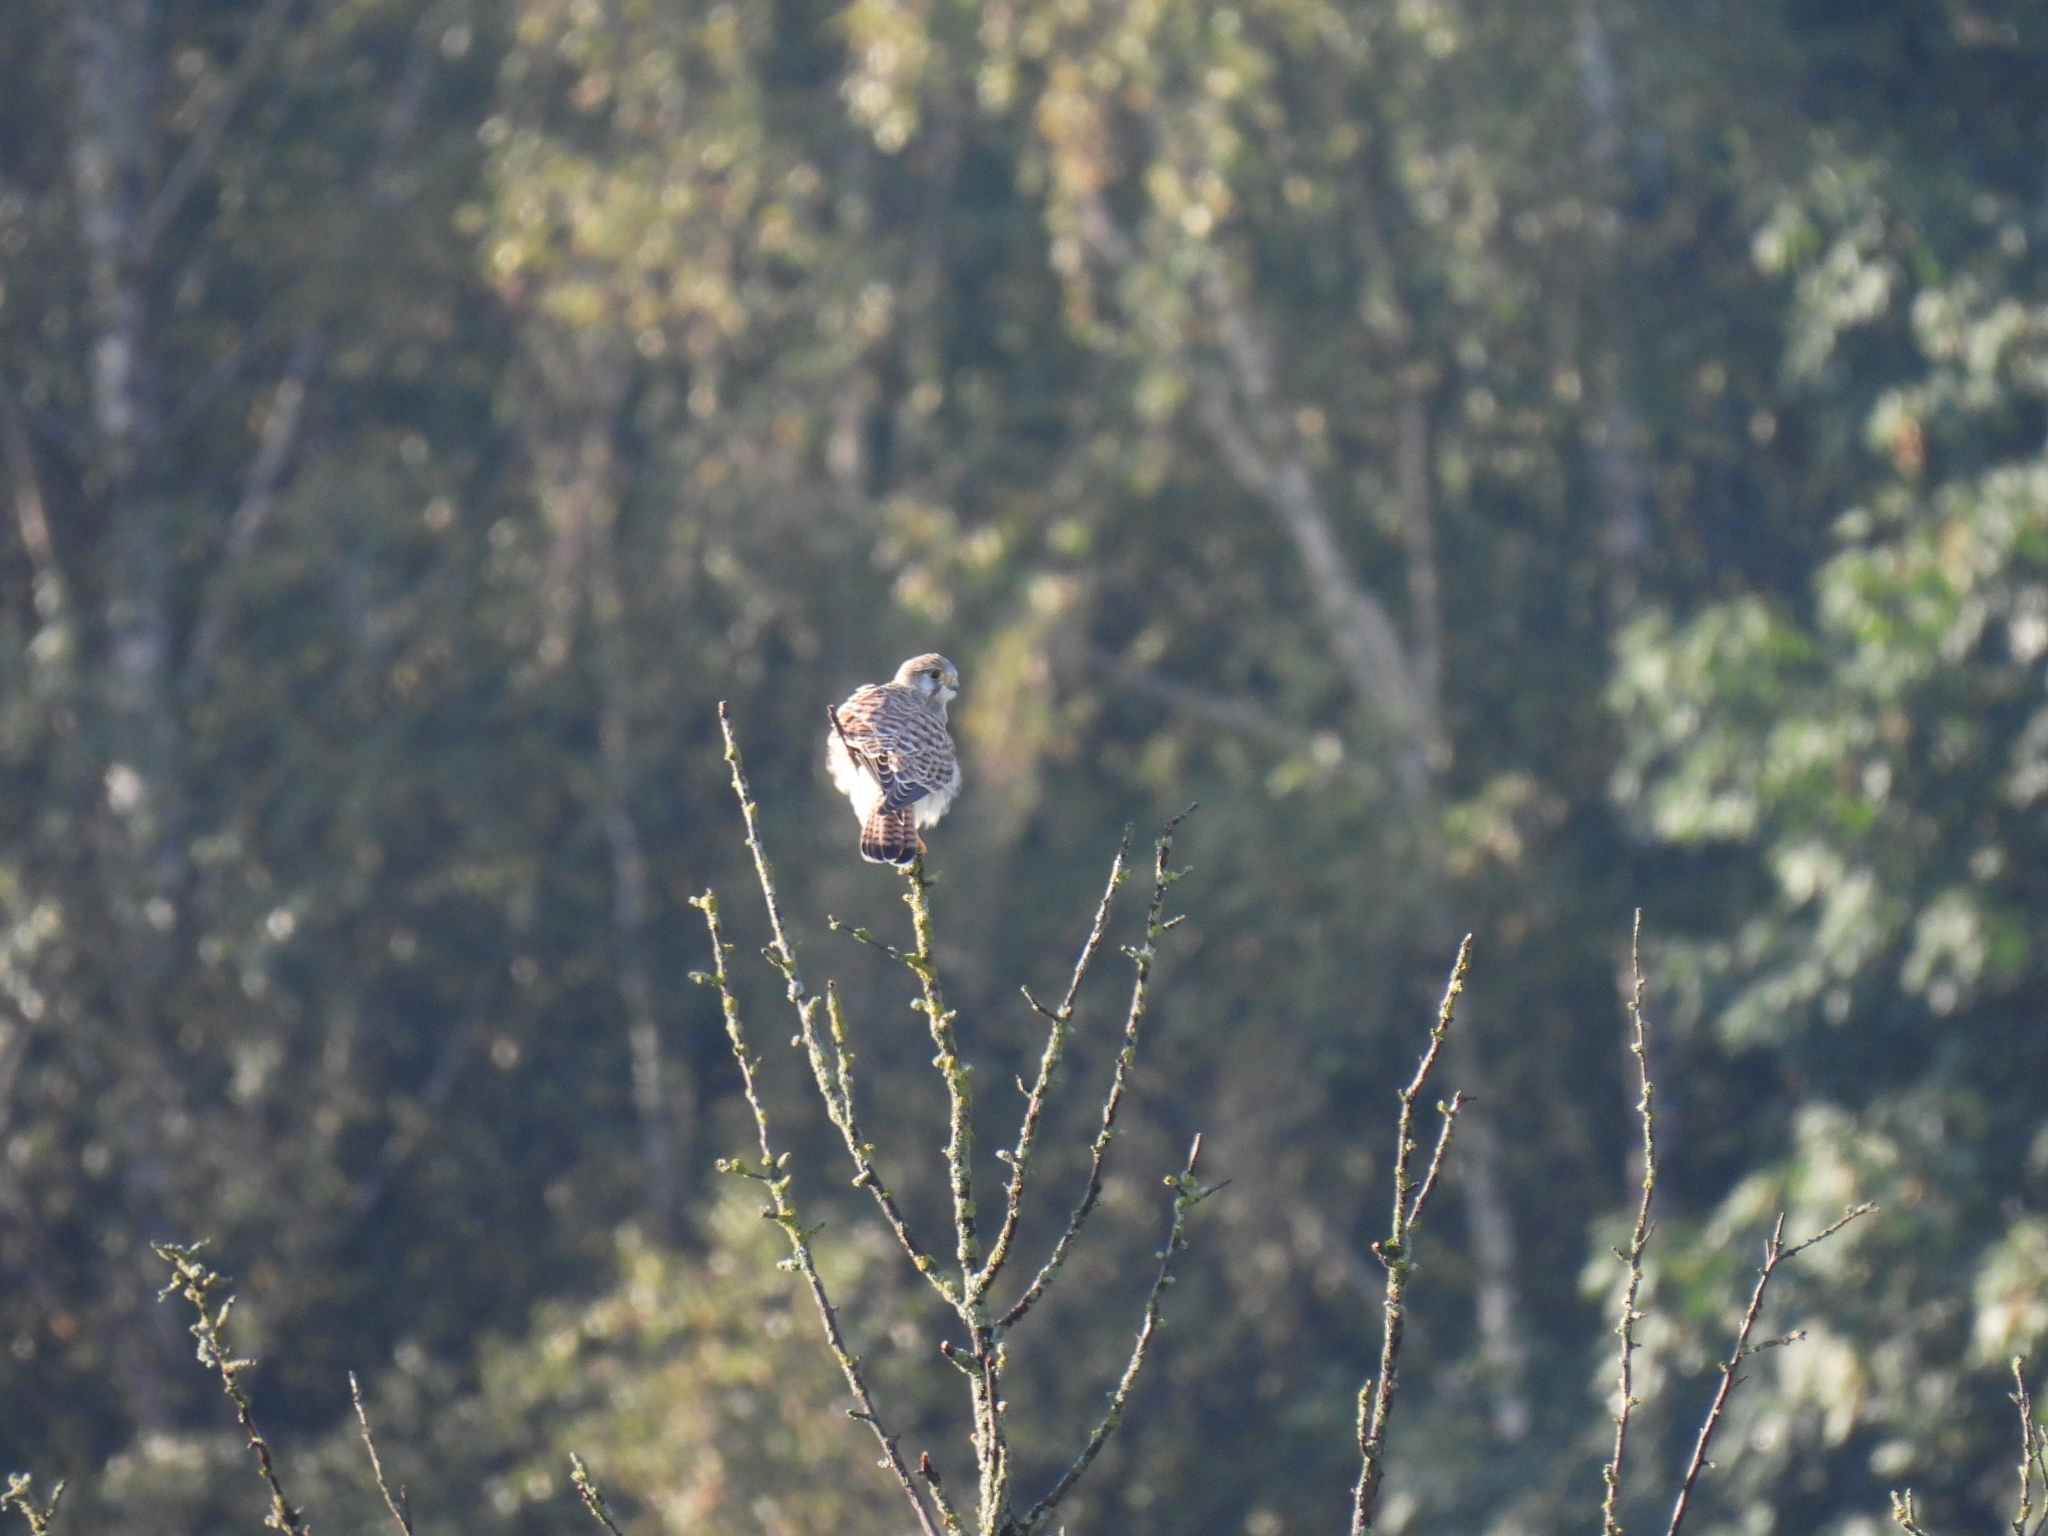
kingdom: Animalia
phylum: Chordata
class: Aves
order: Falconiformes
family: Falconidae
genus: Falco
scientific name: Falco tinnunculus
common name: Common kestrel
